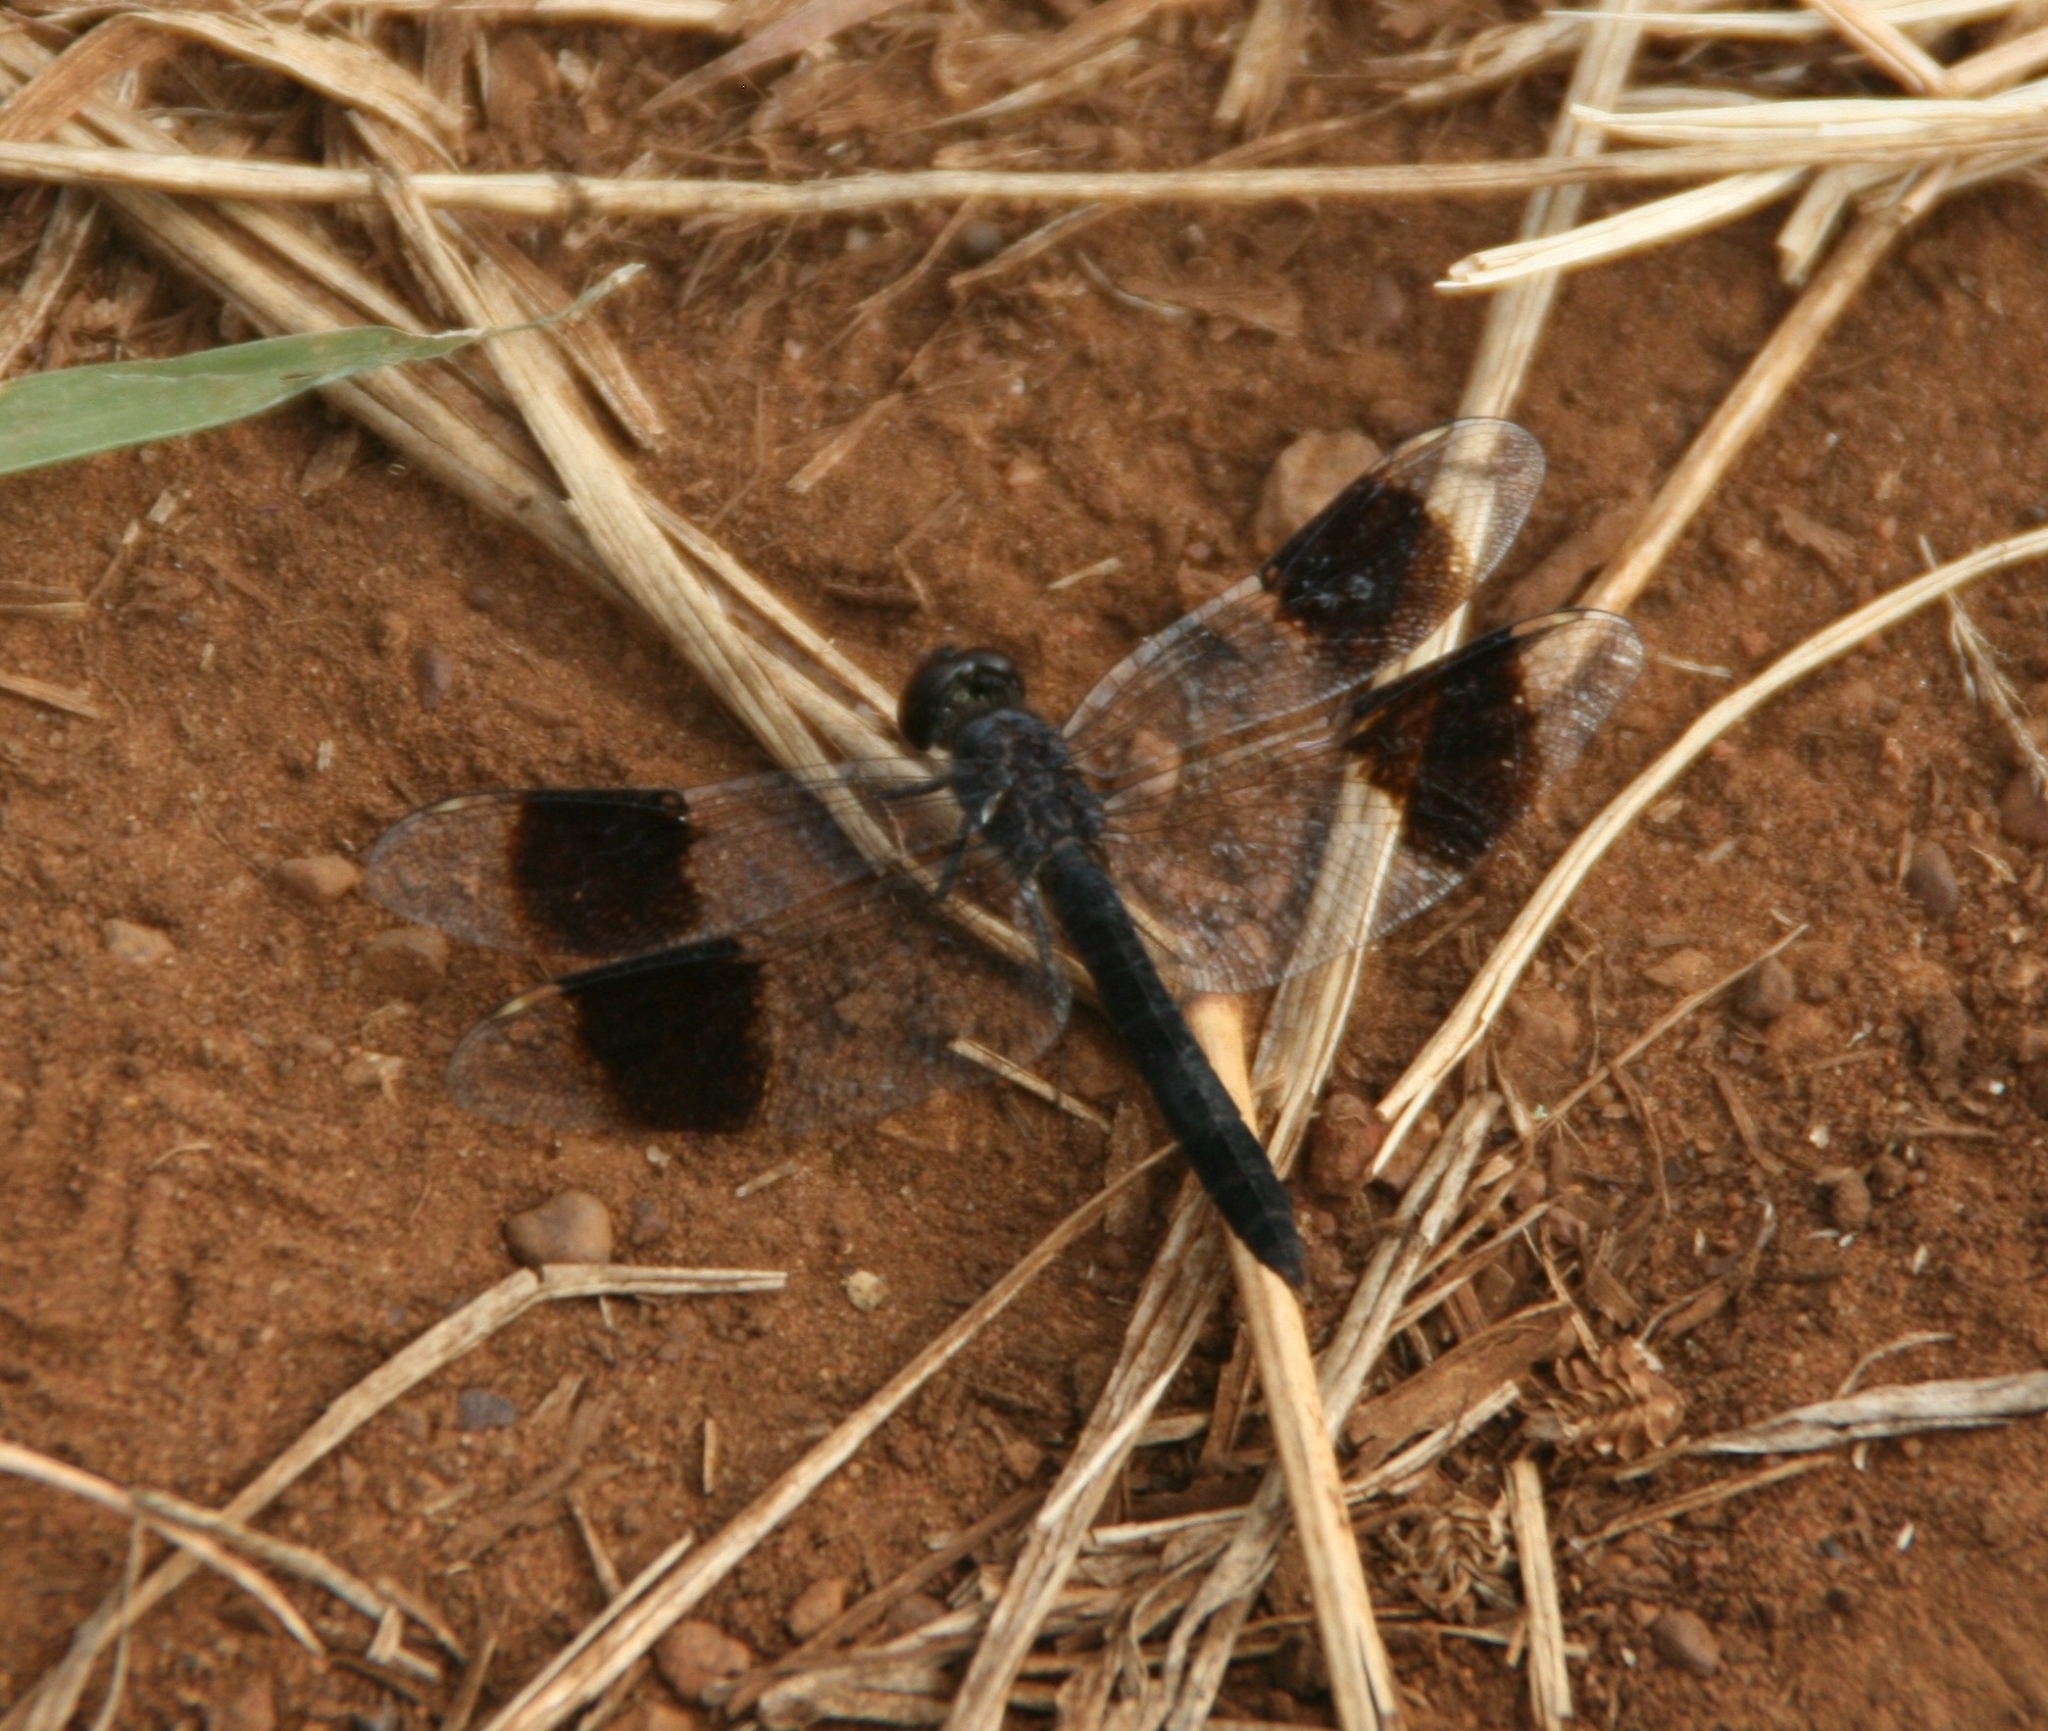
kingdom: Animalia
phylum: Arthropoda
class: Insecta
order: Odonata
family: Libellulidae
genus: Brachythemis
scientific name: Brachythemis leucosticta
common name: Banded groundling
